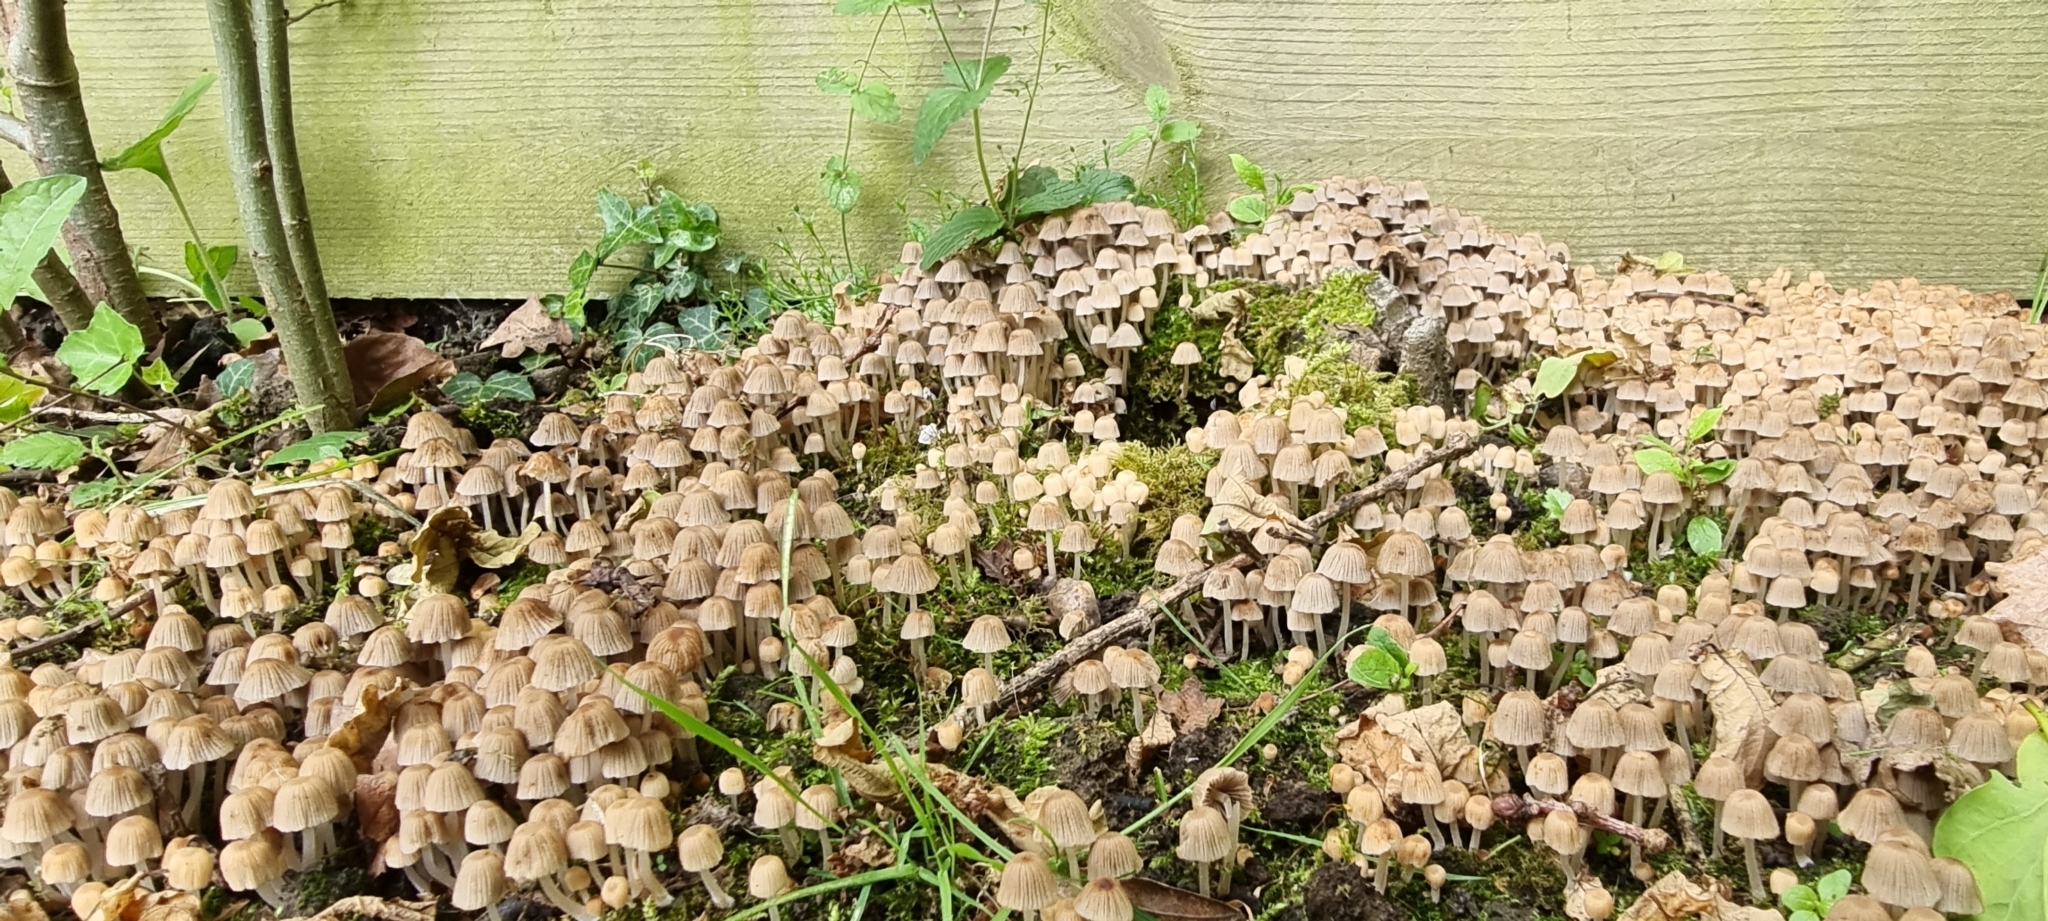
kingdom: Fungi
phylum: Basidiomycota
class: Agaricomycetes
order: Agaricales
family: Psathyrellaceae
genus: Coprinellus
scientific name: Coprinellus disseminatus
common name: Fairies' bonnets
